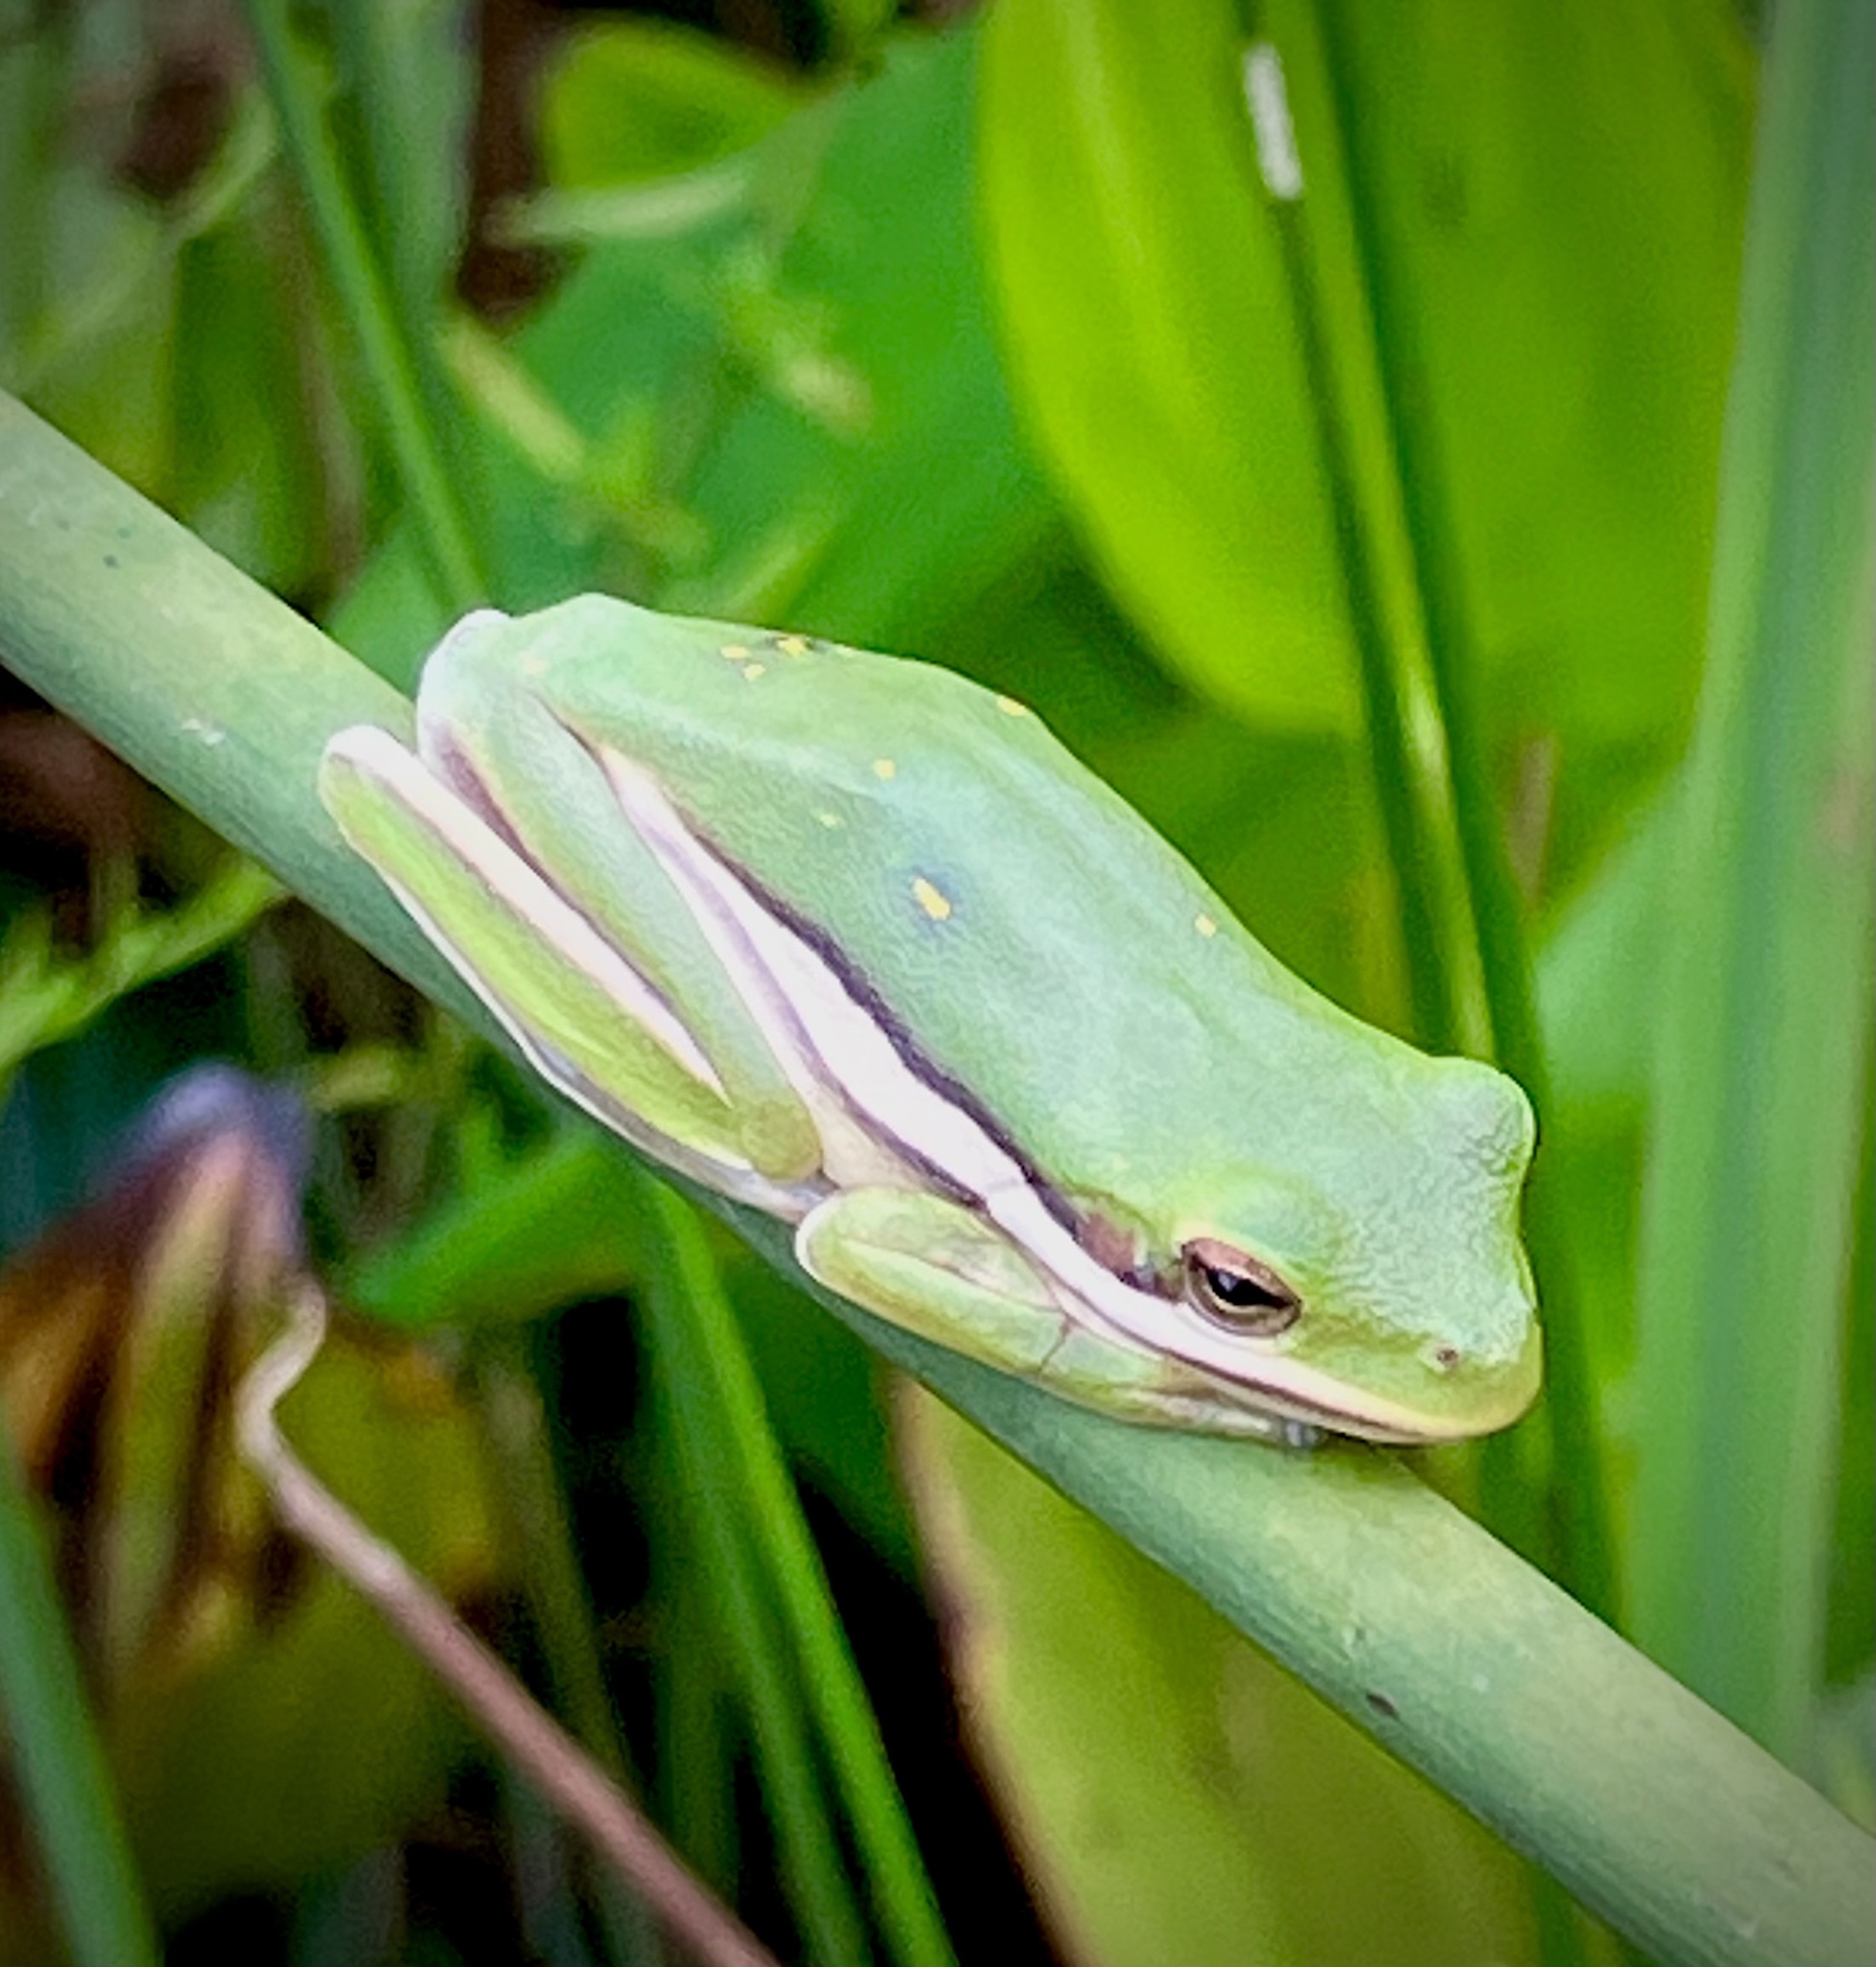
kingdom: Animalia
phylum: Chordata
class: Amphibia
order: Anura
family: Hylidae
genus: Dryophytes
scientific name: Dryophytes cinereus
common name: Green treefrog
